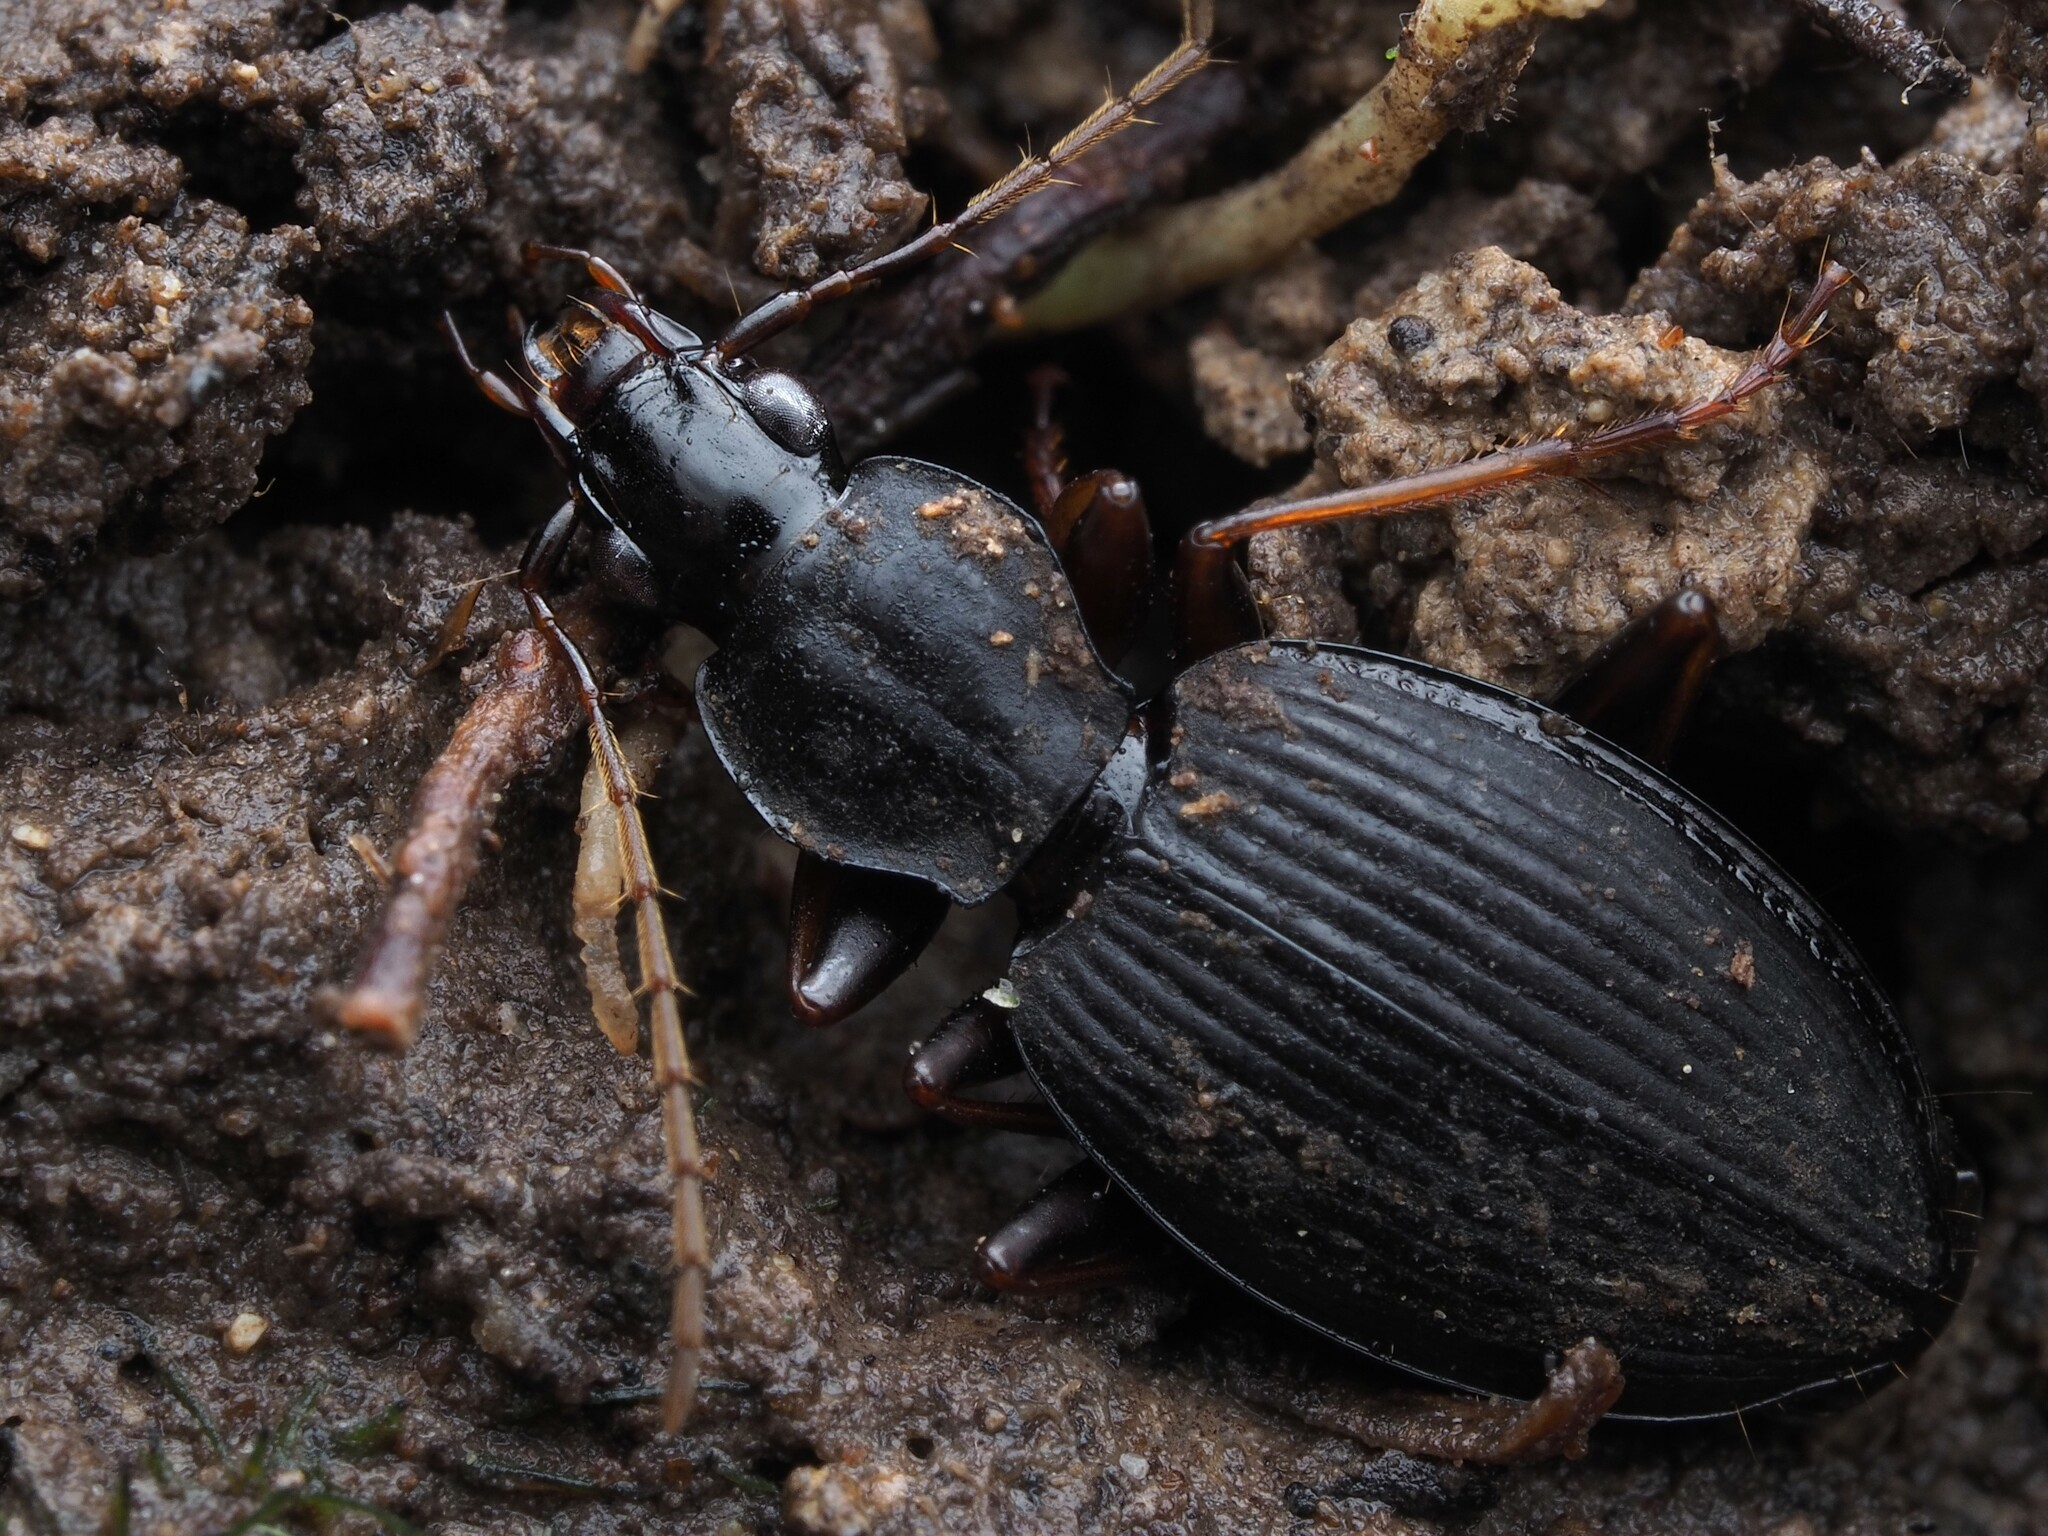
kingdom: Animalia
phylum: Arthropoda
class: Insecta
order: Coleoptera
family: Carabidae
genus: Ctenognathus
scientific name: Ctenognathus cardiophorus
